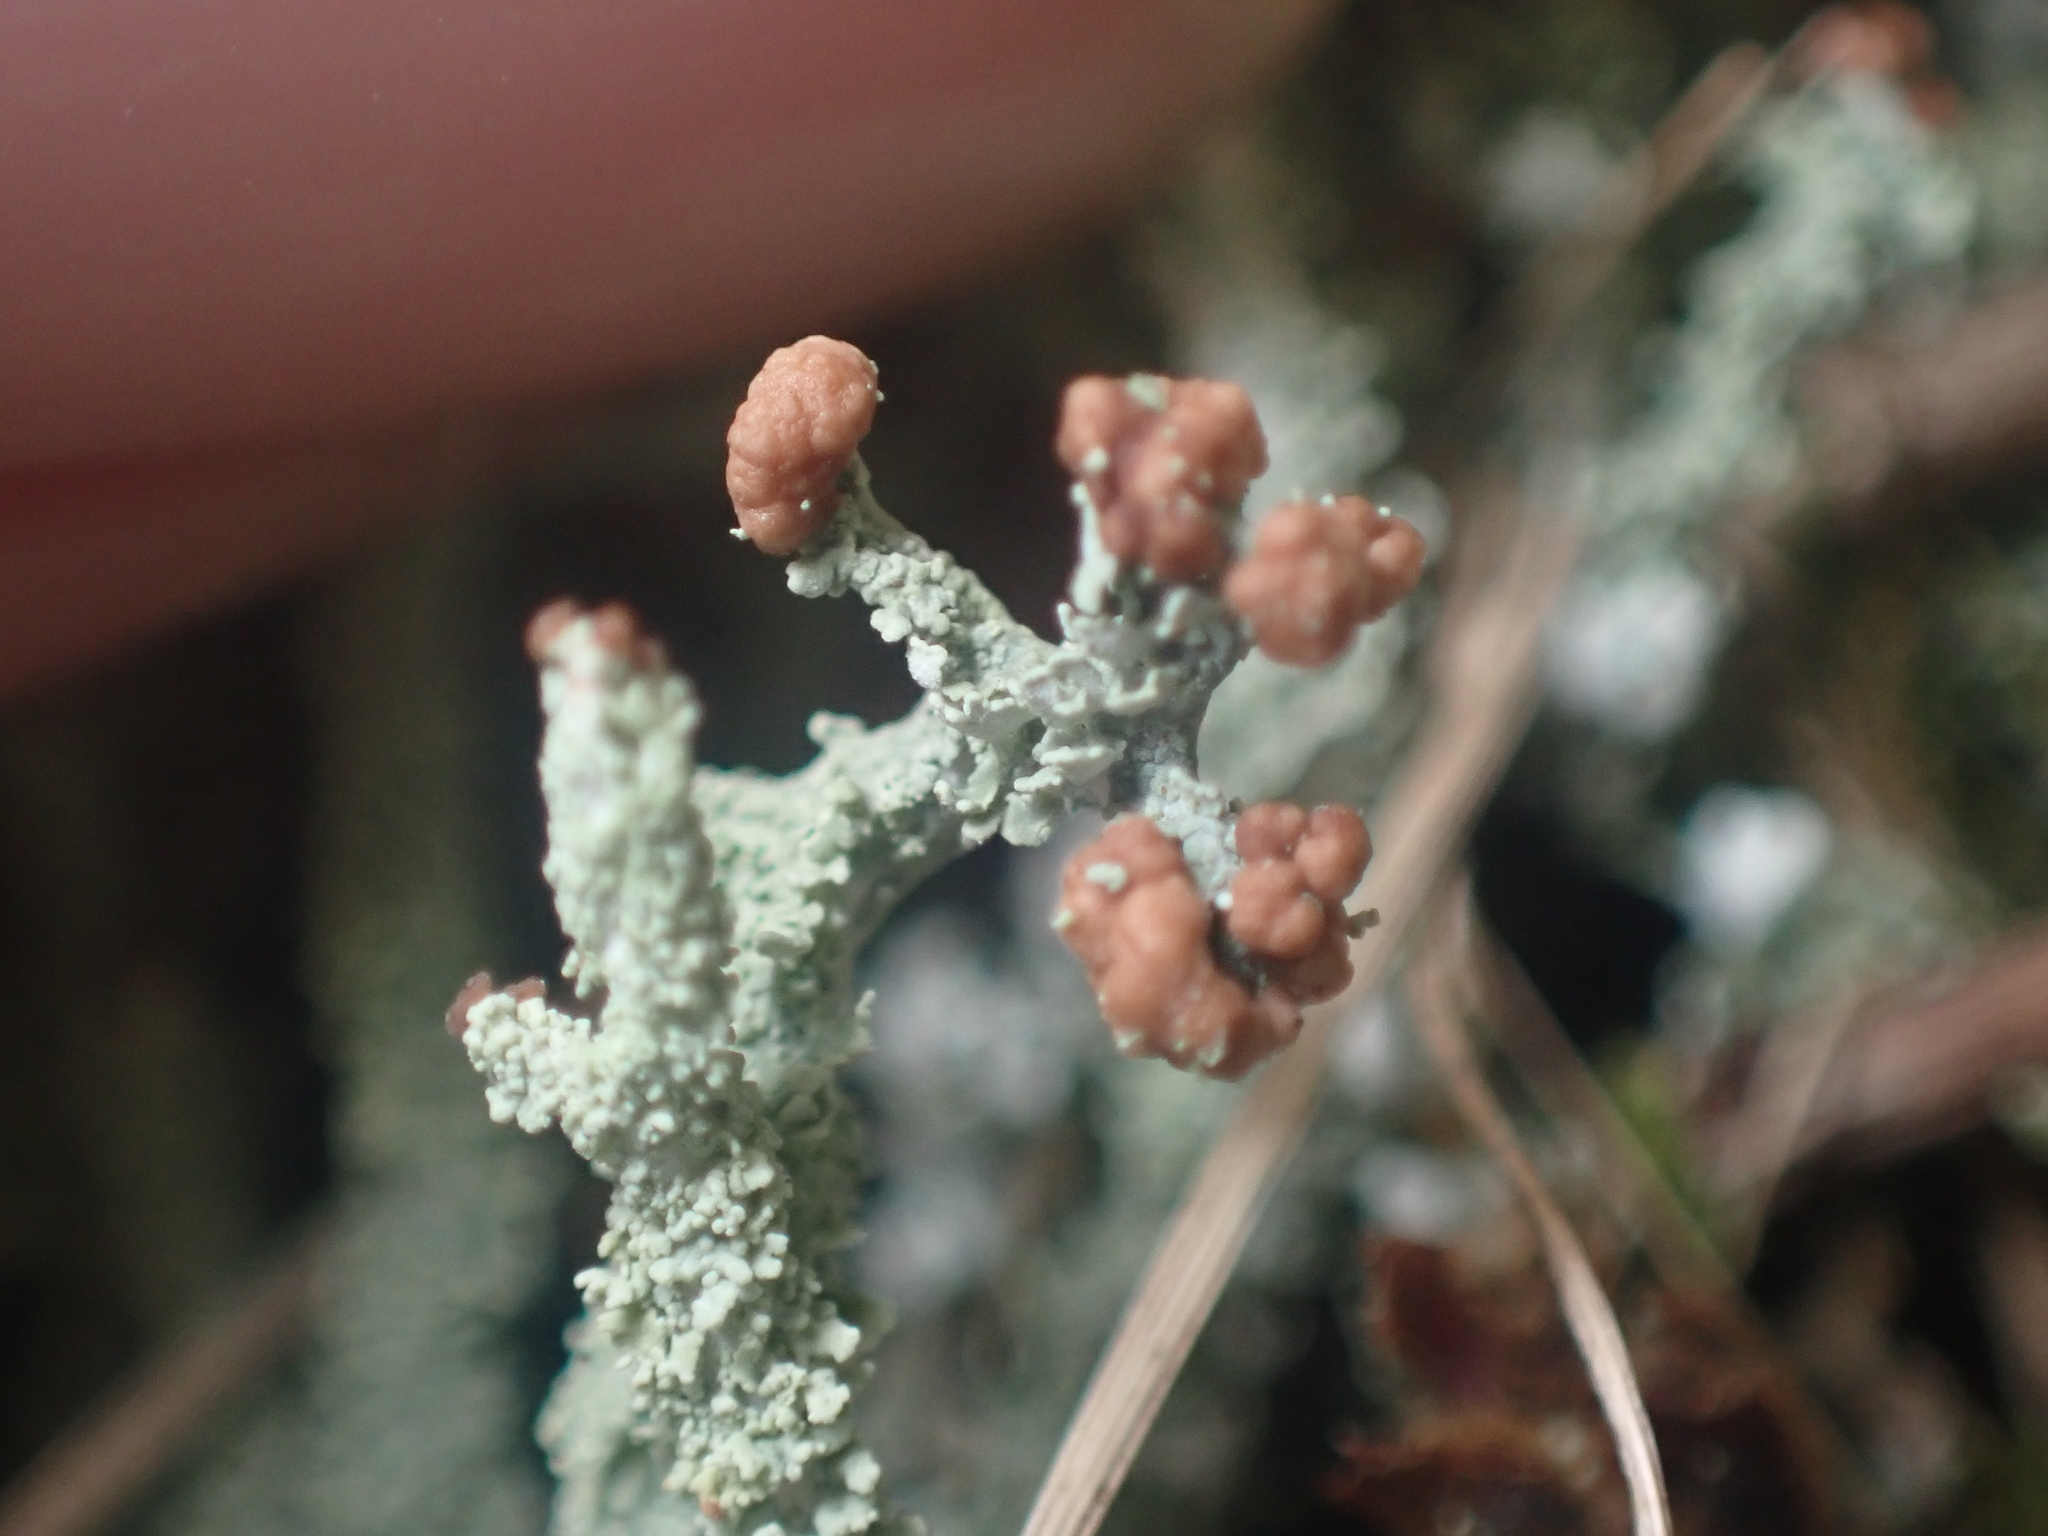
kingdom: Fungi
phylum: Ascomycota
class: Lecanoromycetes
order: Lecanorales
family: Cladoniaceae
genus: Cladonia
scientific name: Cladonia enantia
